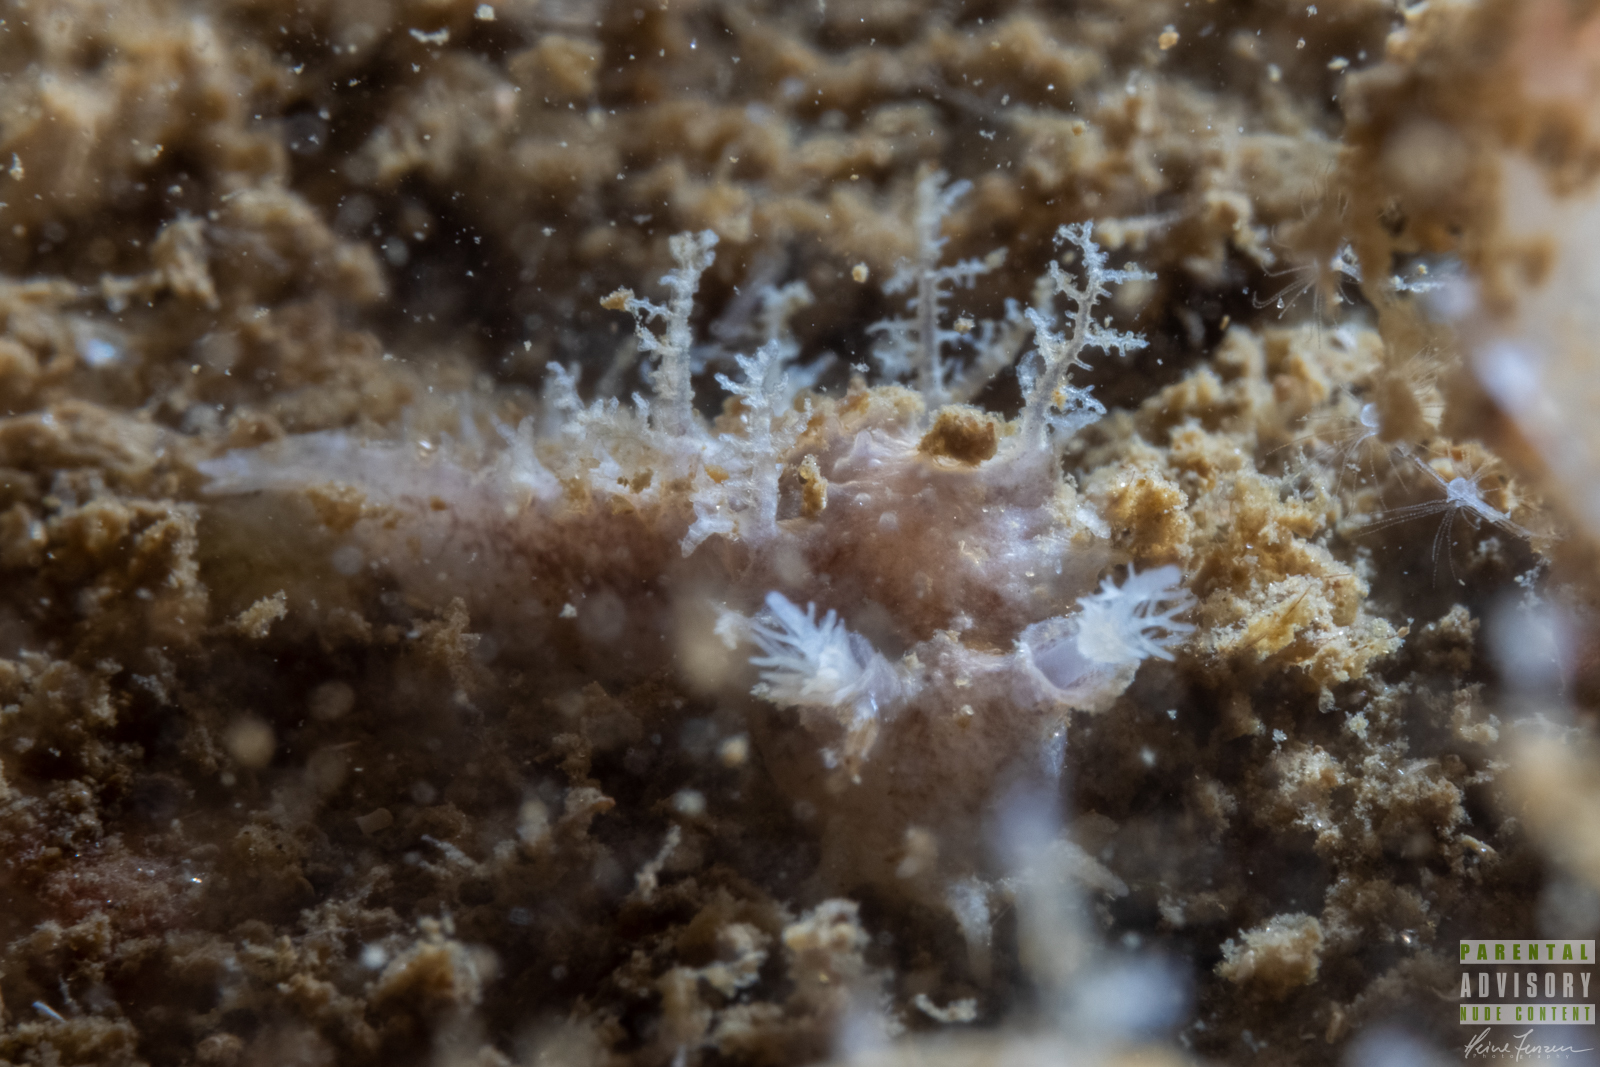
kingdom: Animalia
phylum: Mollusca
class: Gastropoda
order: Nudibranchia
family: Tritoniidae
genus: Duvaucelia
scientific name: Duvaucelia plebeia
